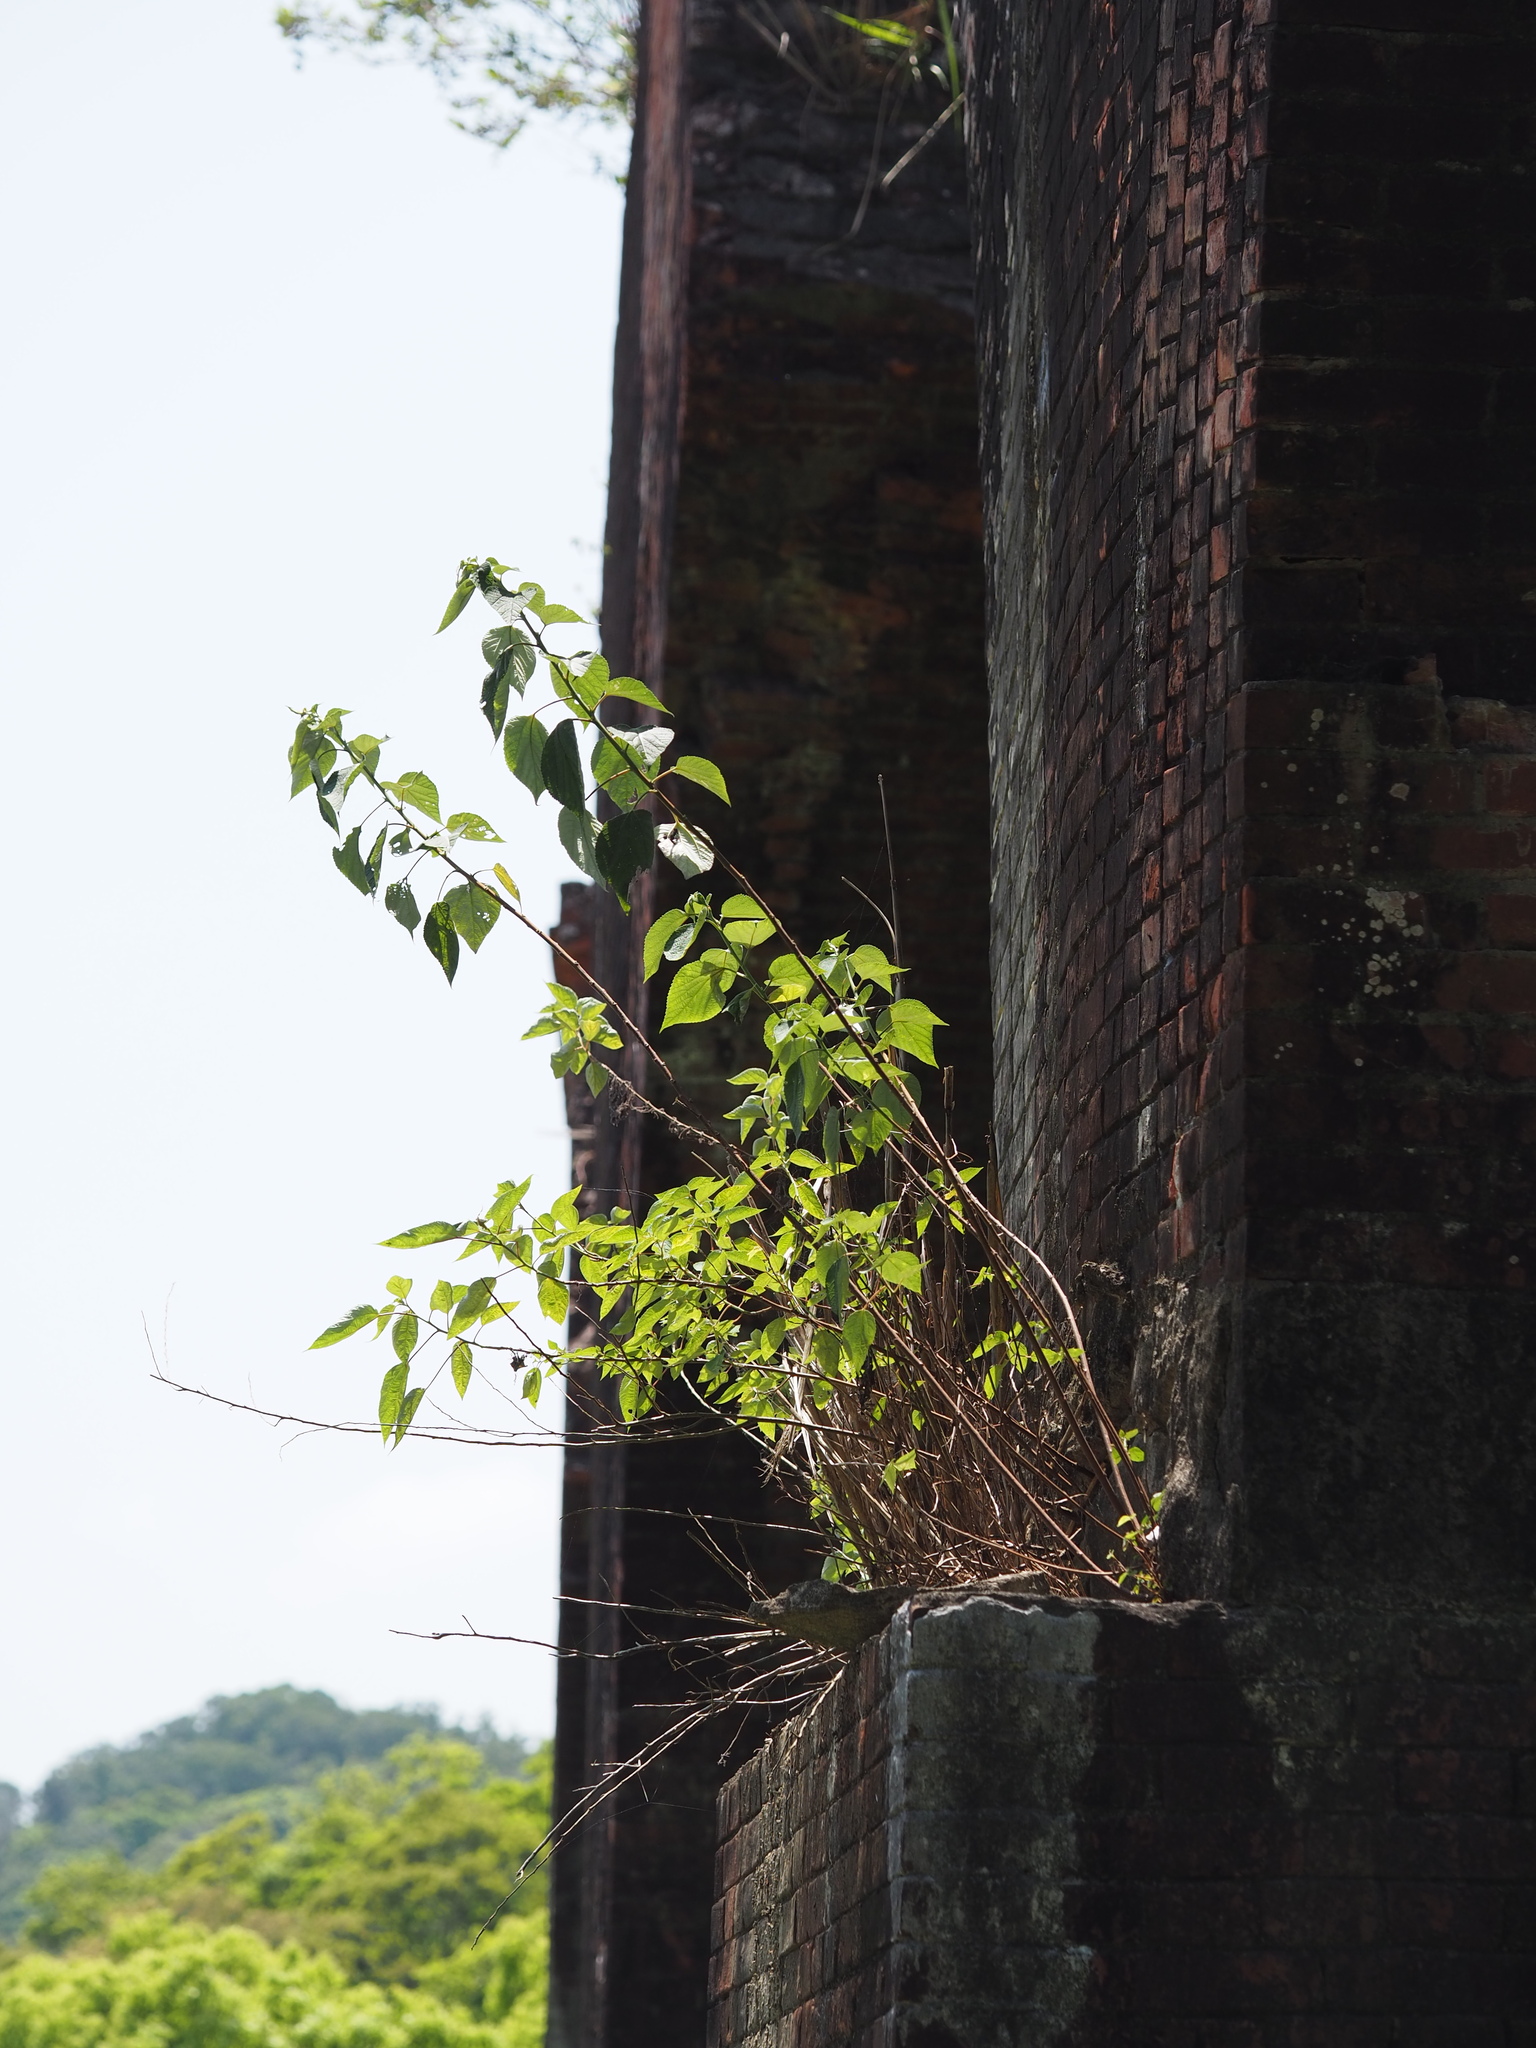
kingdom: Plantae
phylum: Tracheophyta
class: Magnoliopsida
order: Rosales
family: Urticaceae
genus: Boehmeria
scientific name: Boehmeria nivea
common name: Ramie chinese grass
